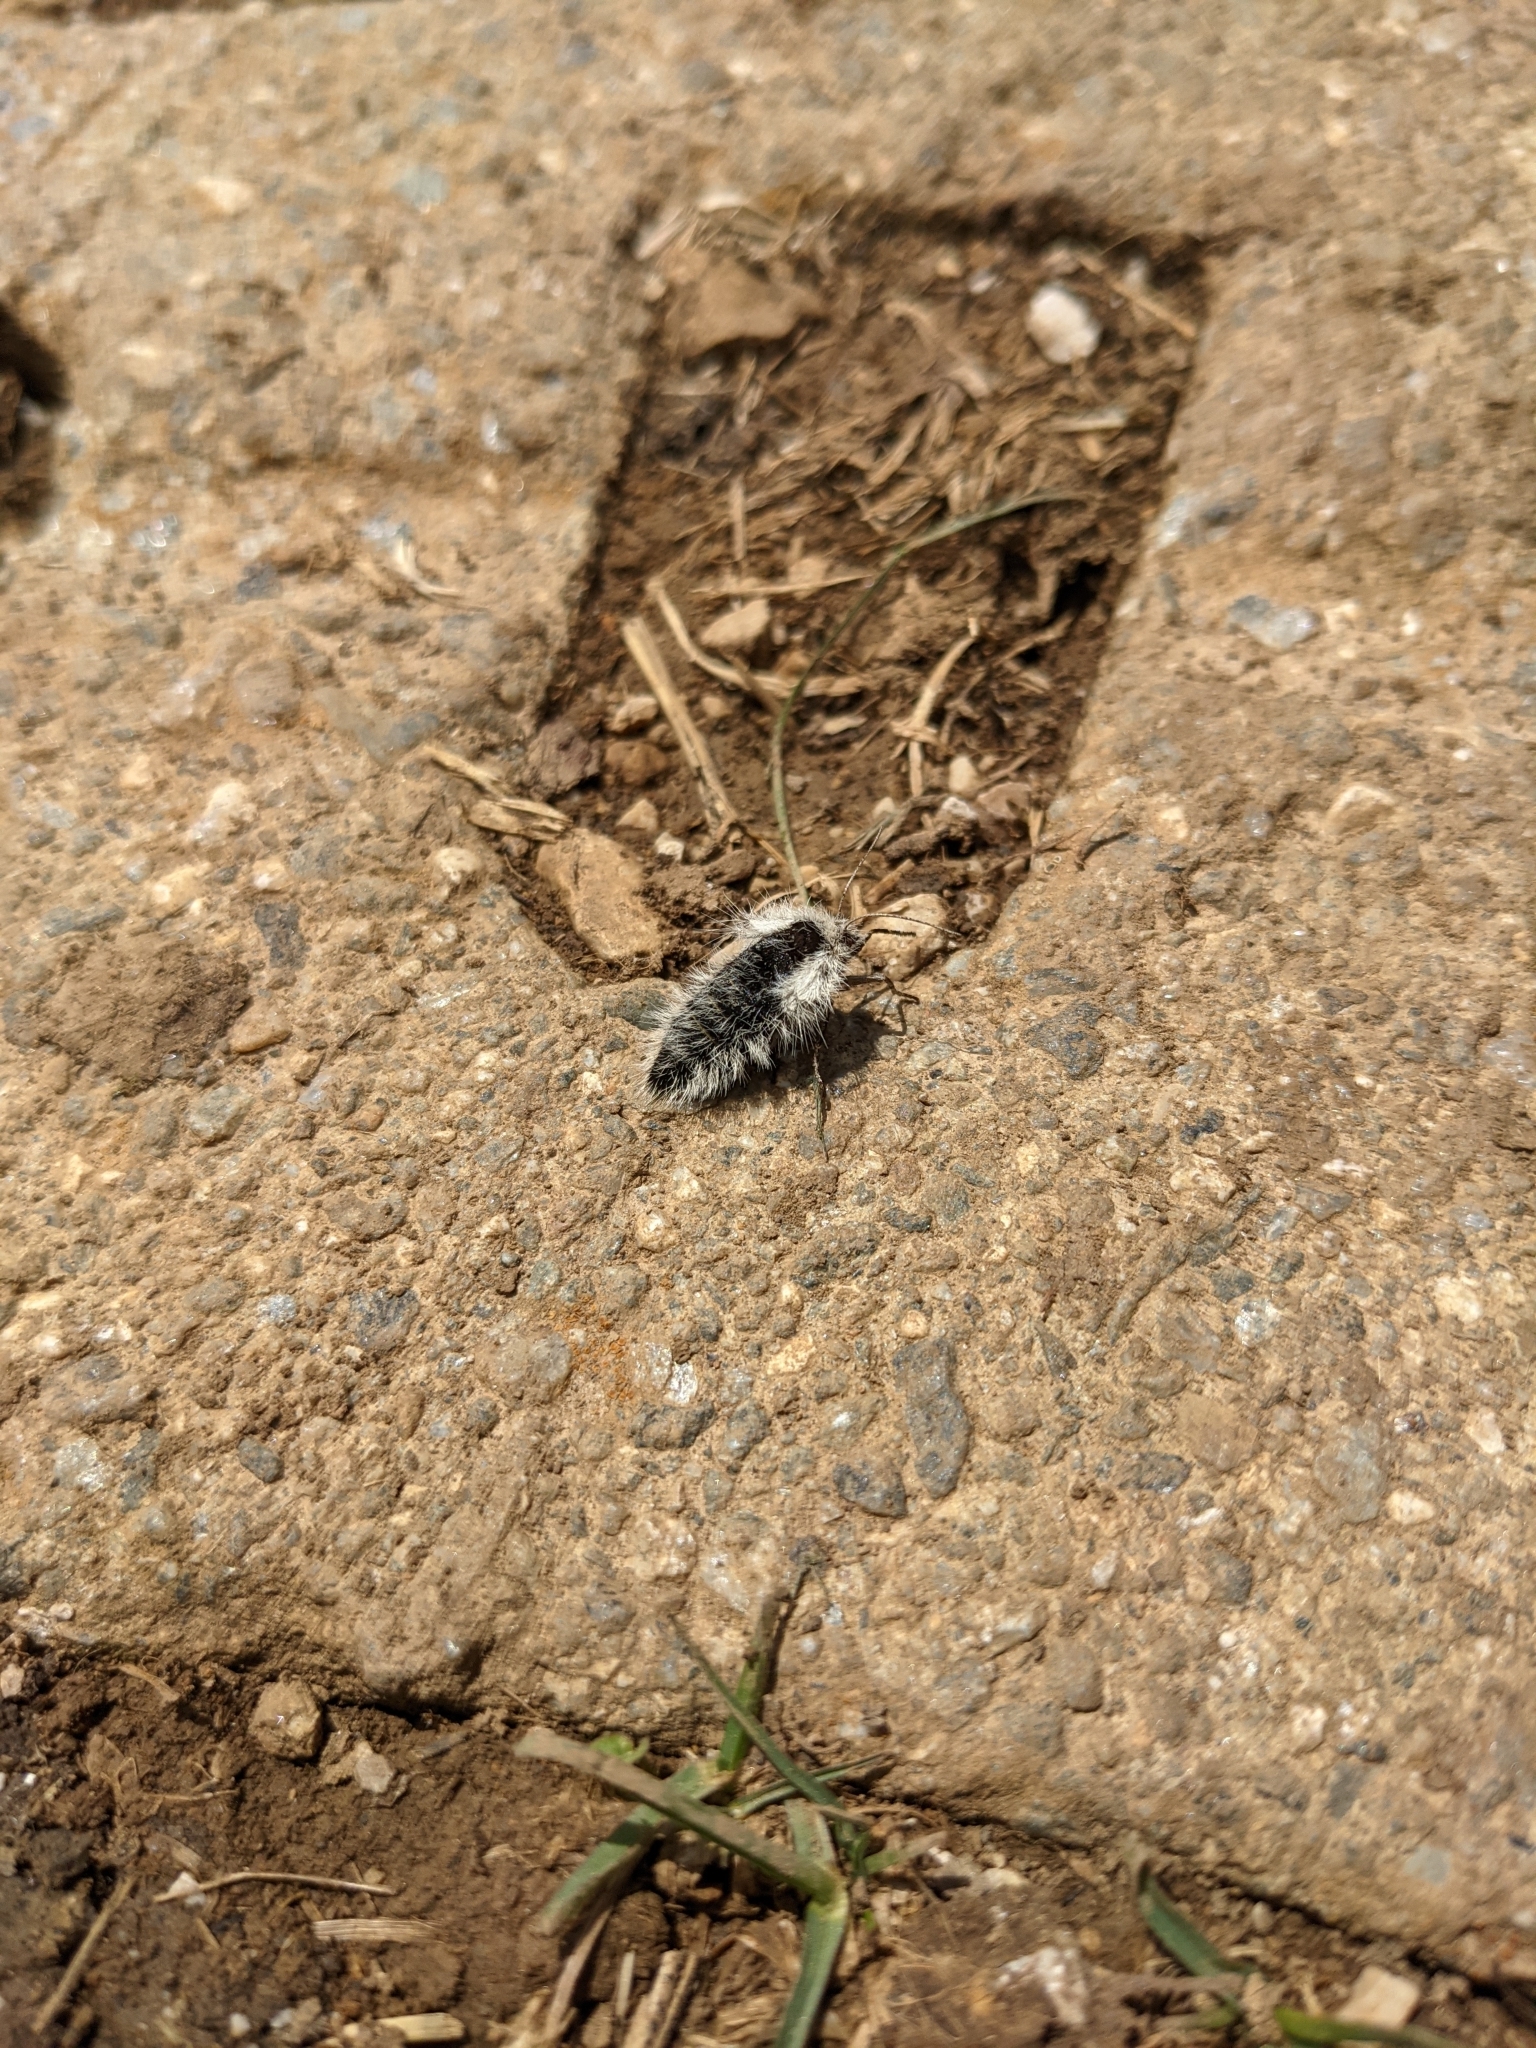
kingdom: Animalia
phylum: Arthropoda
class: Insecta
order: Lepidoptera
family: Geometridae
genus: Lycia
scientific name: Lycia alpina
